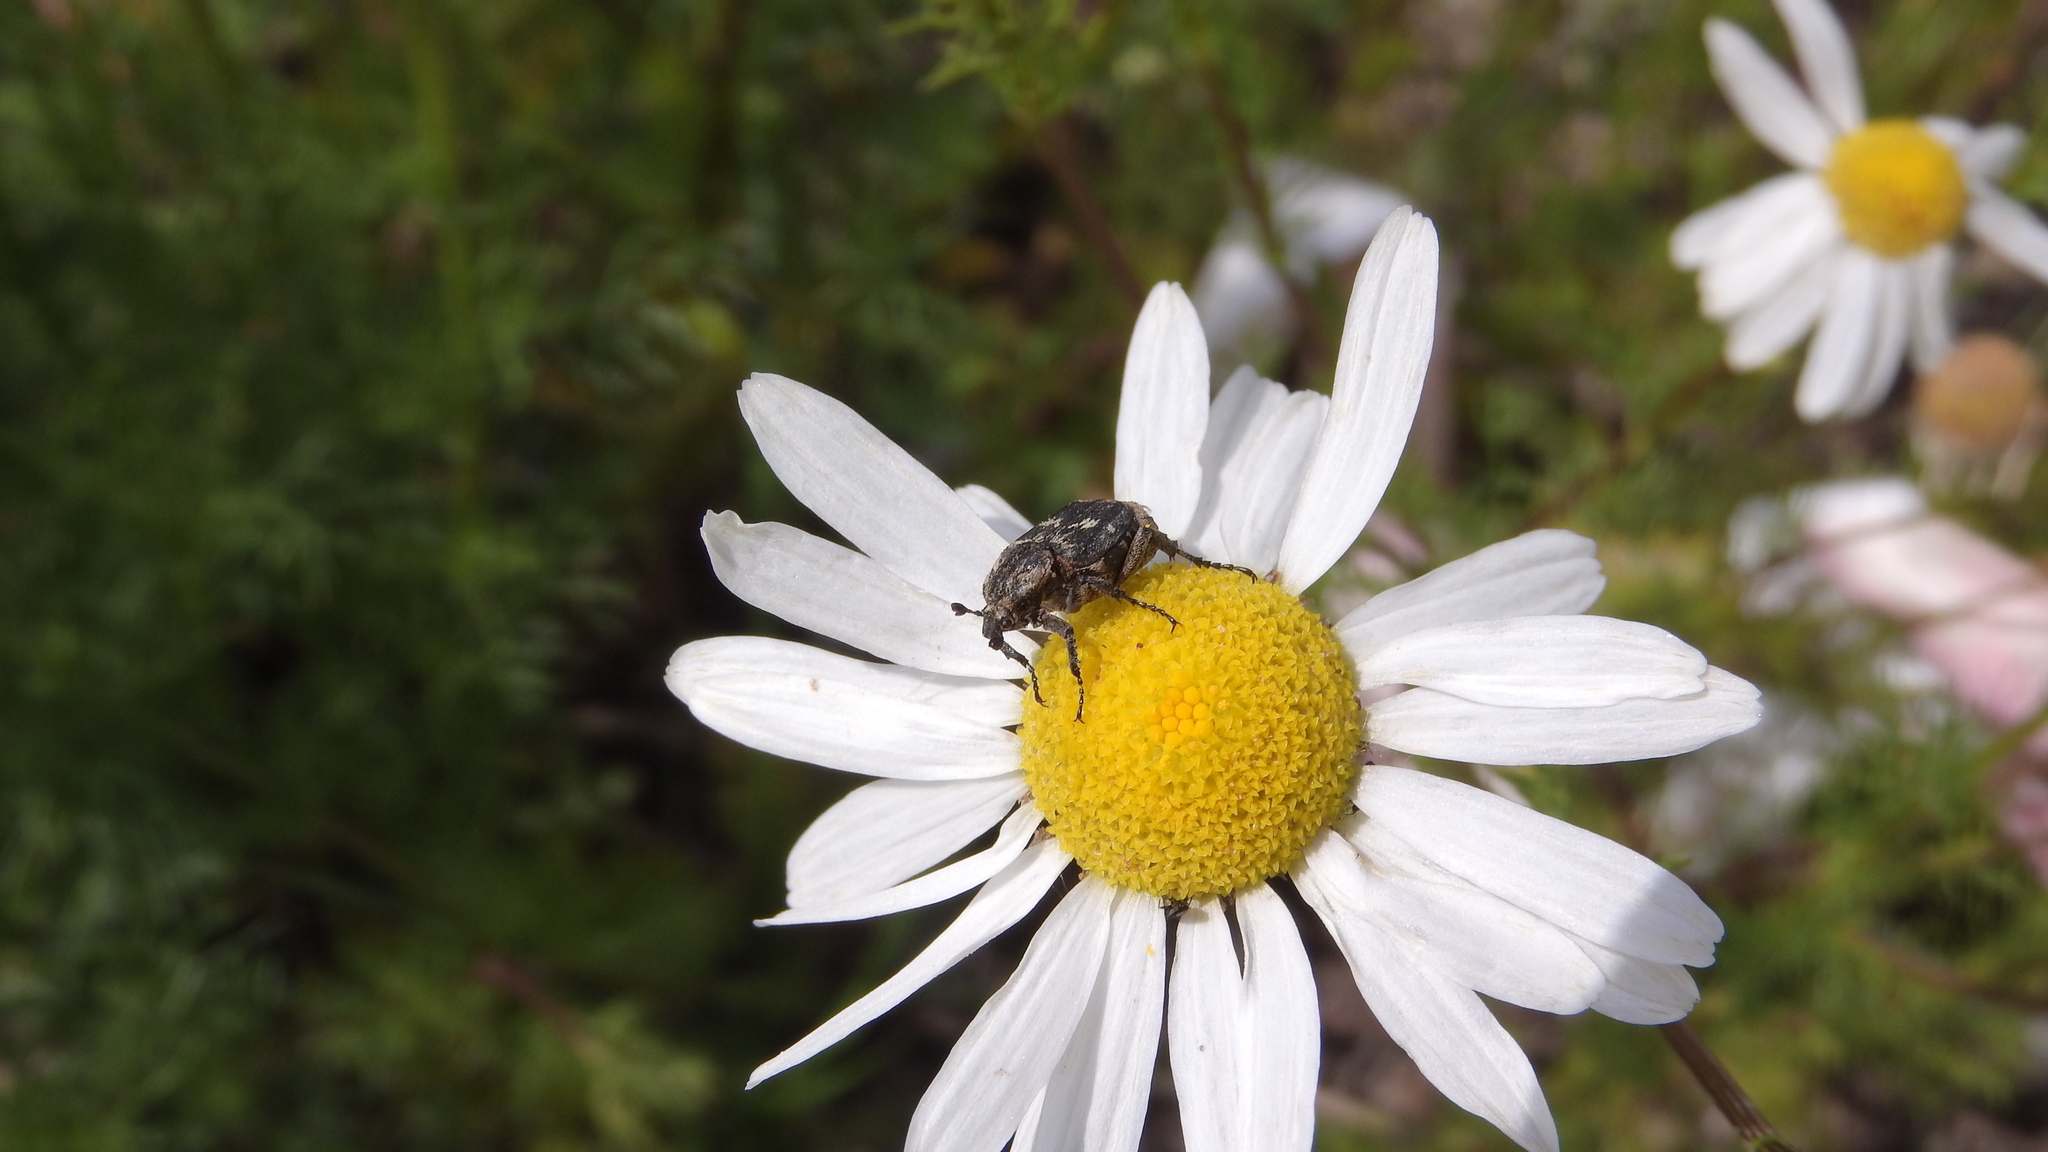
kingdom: Animalia
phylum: Arthropoda
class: Insecta
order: Coleoptera
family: Scarabaeidae
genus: Valgus
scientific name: Valgus hemipterus
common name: Bug flower chafer
